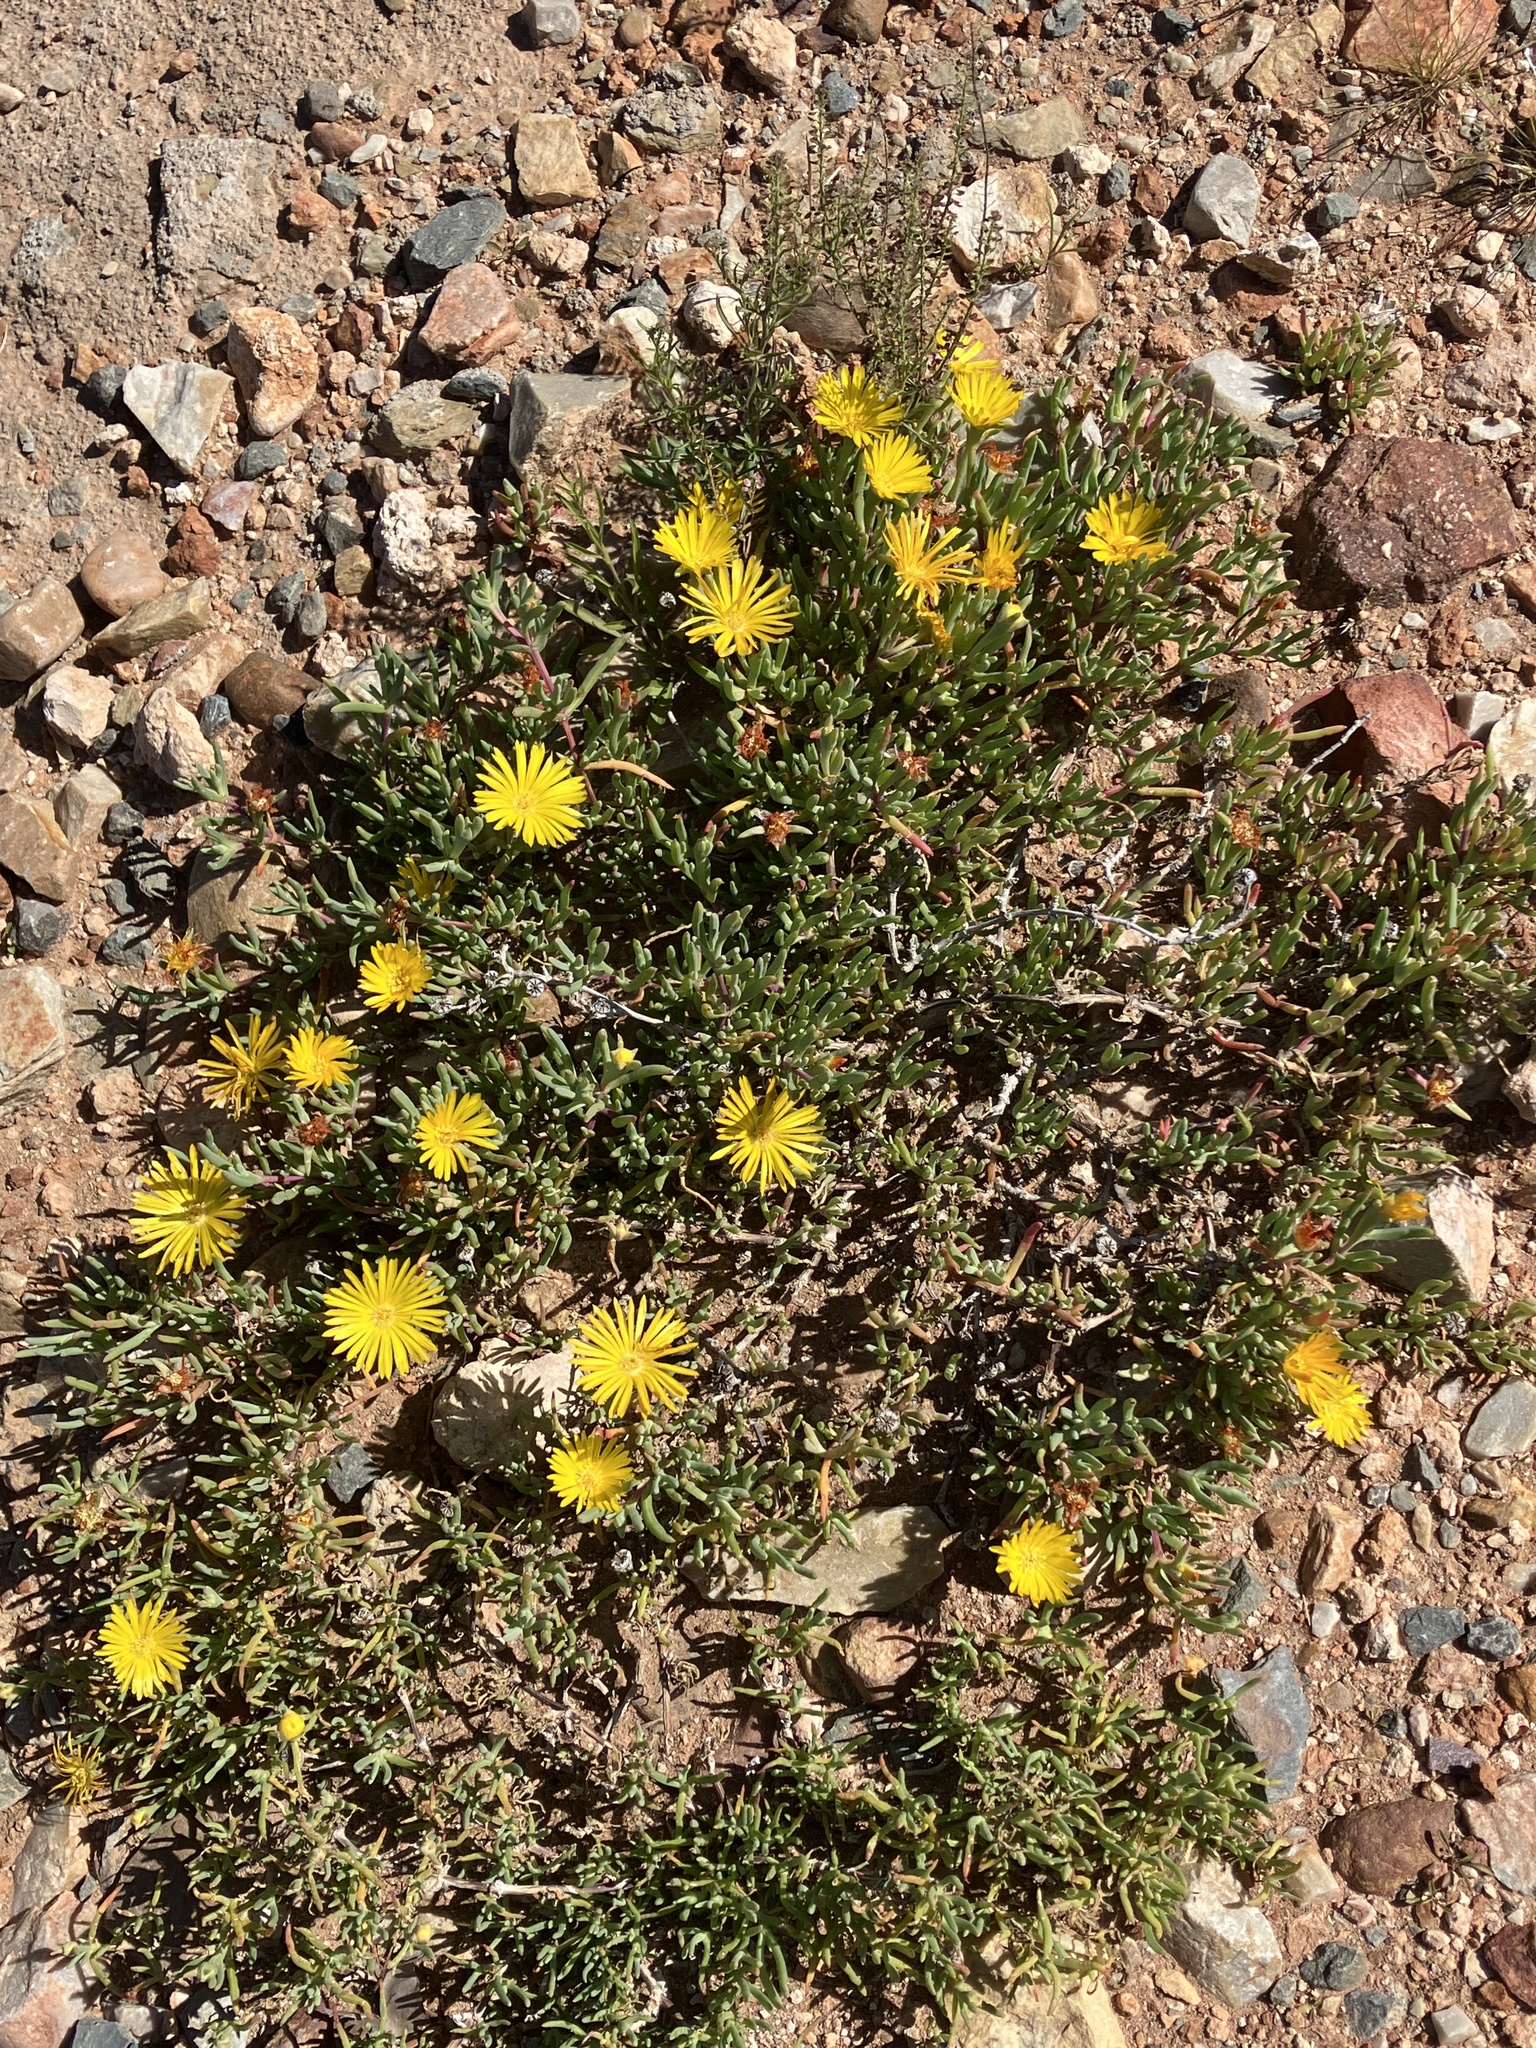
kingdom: Plantae
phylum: Tracheophyta
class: Magnoliopsida
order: Caryophyllales
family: Aizoaceae
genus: Malephora
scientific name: Malephora lutea
